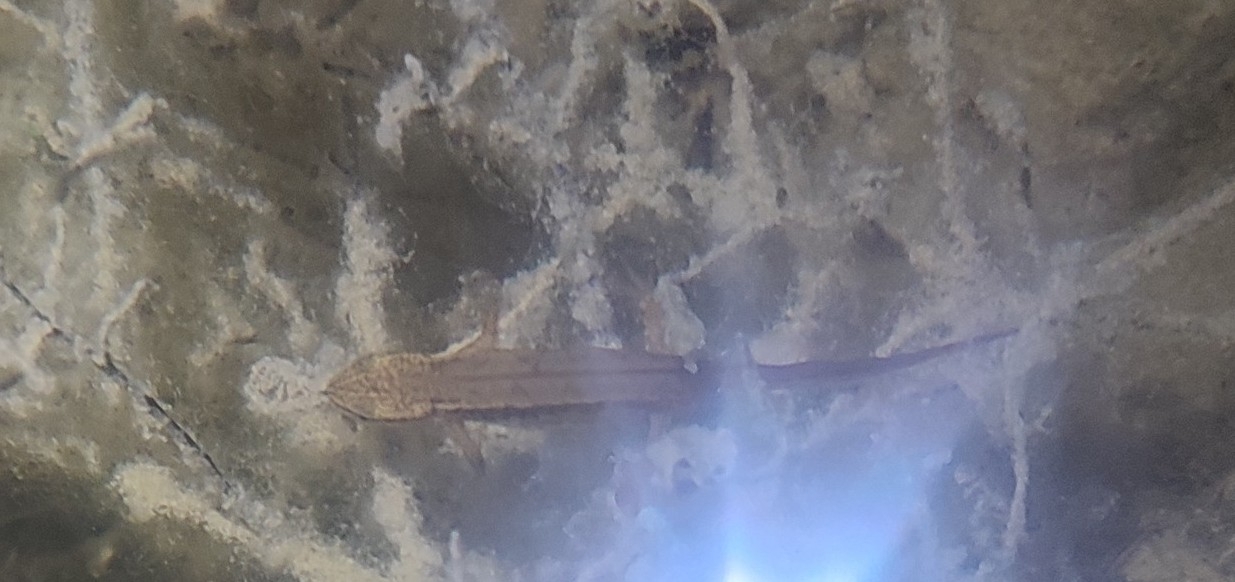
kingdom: Animalia
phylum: Chordata
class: Amphibia
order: Caudata
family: Salamandridae
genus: Lissotriton
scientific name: Lissotriton helveticus
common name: Palmate newt
